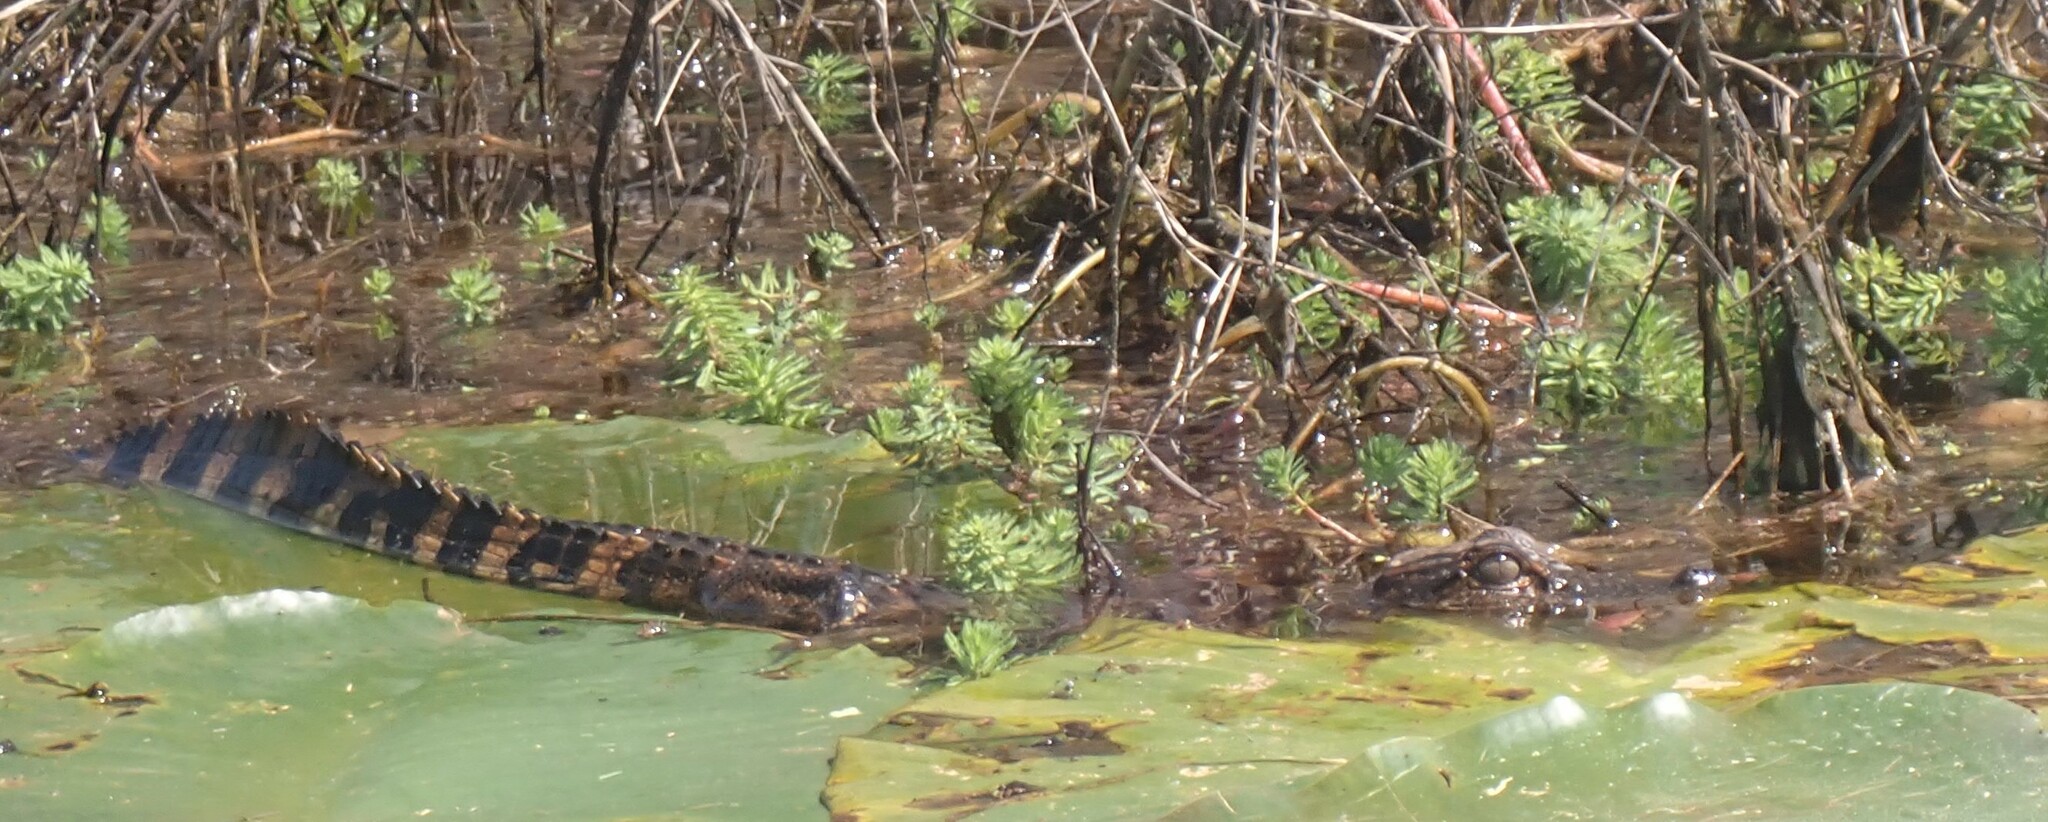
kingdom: Animalia
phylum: Chordata
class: Crocodylia
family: Alligatoridae
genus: Alligator
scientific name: Alligator mississippiensis
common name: American alligator
